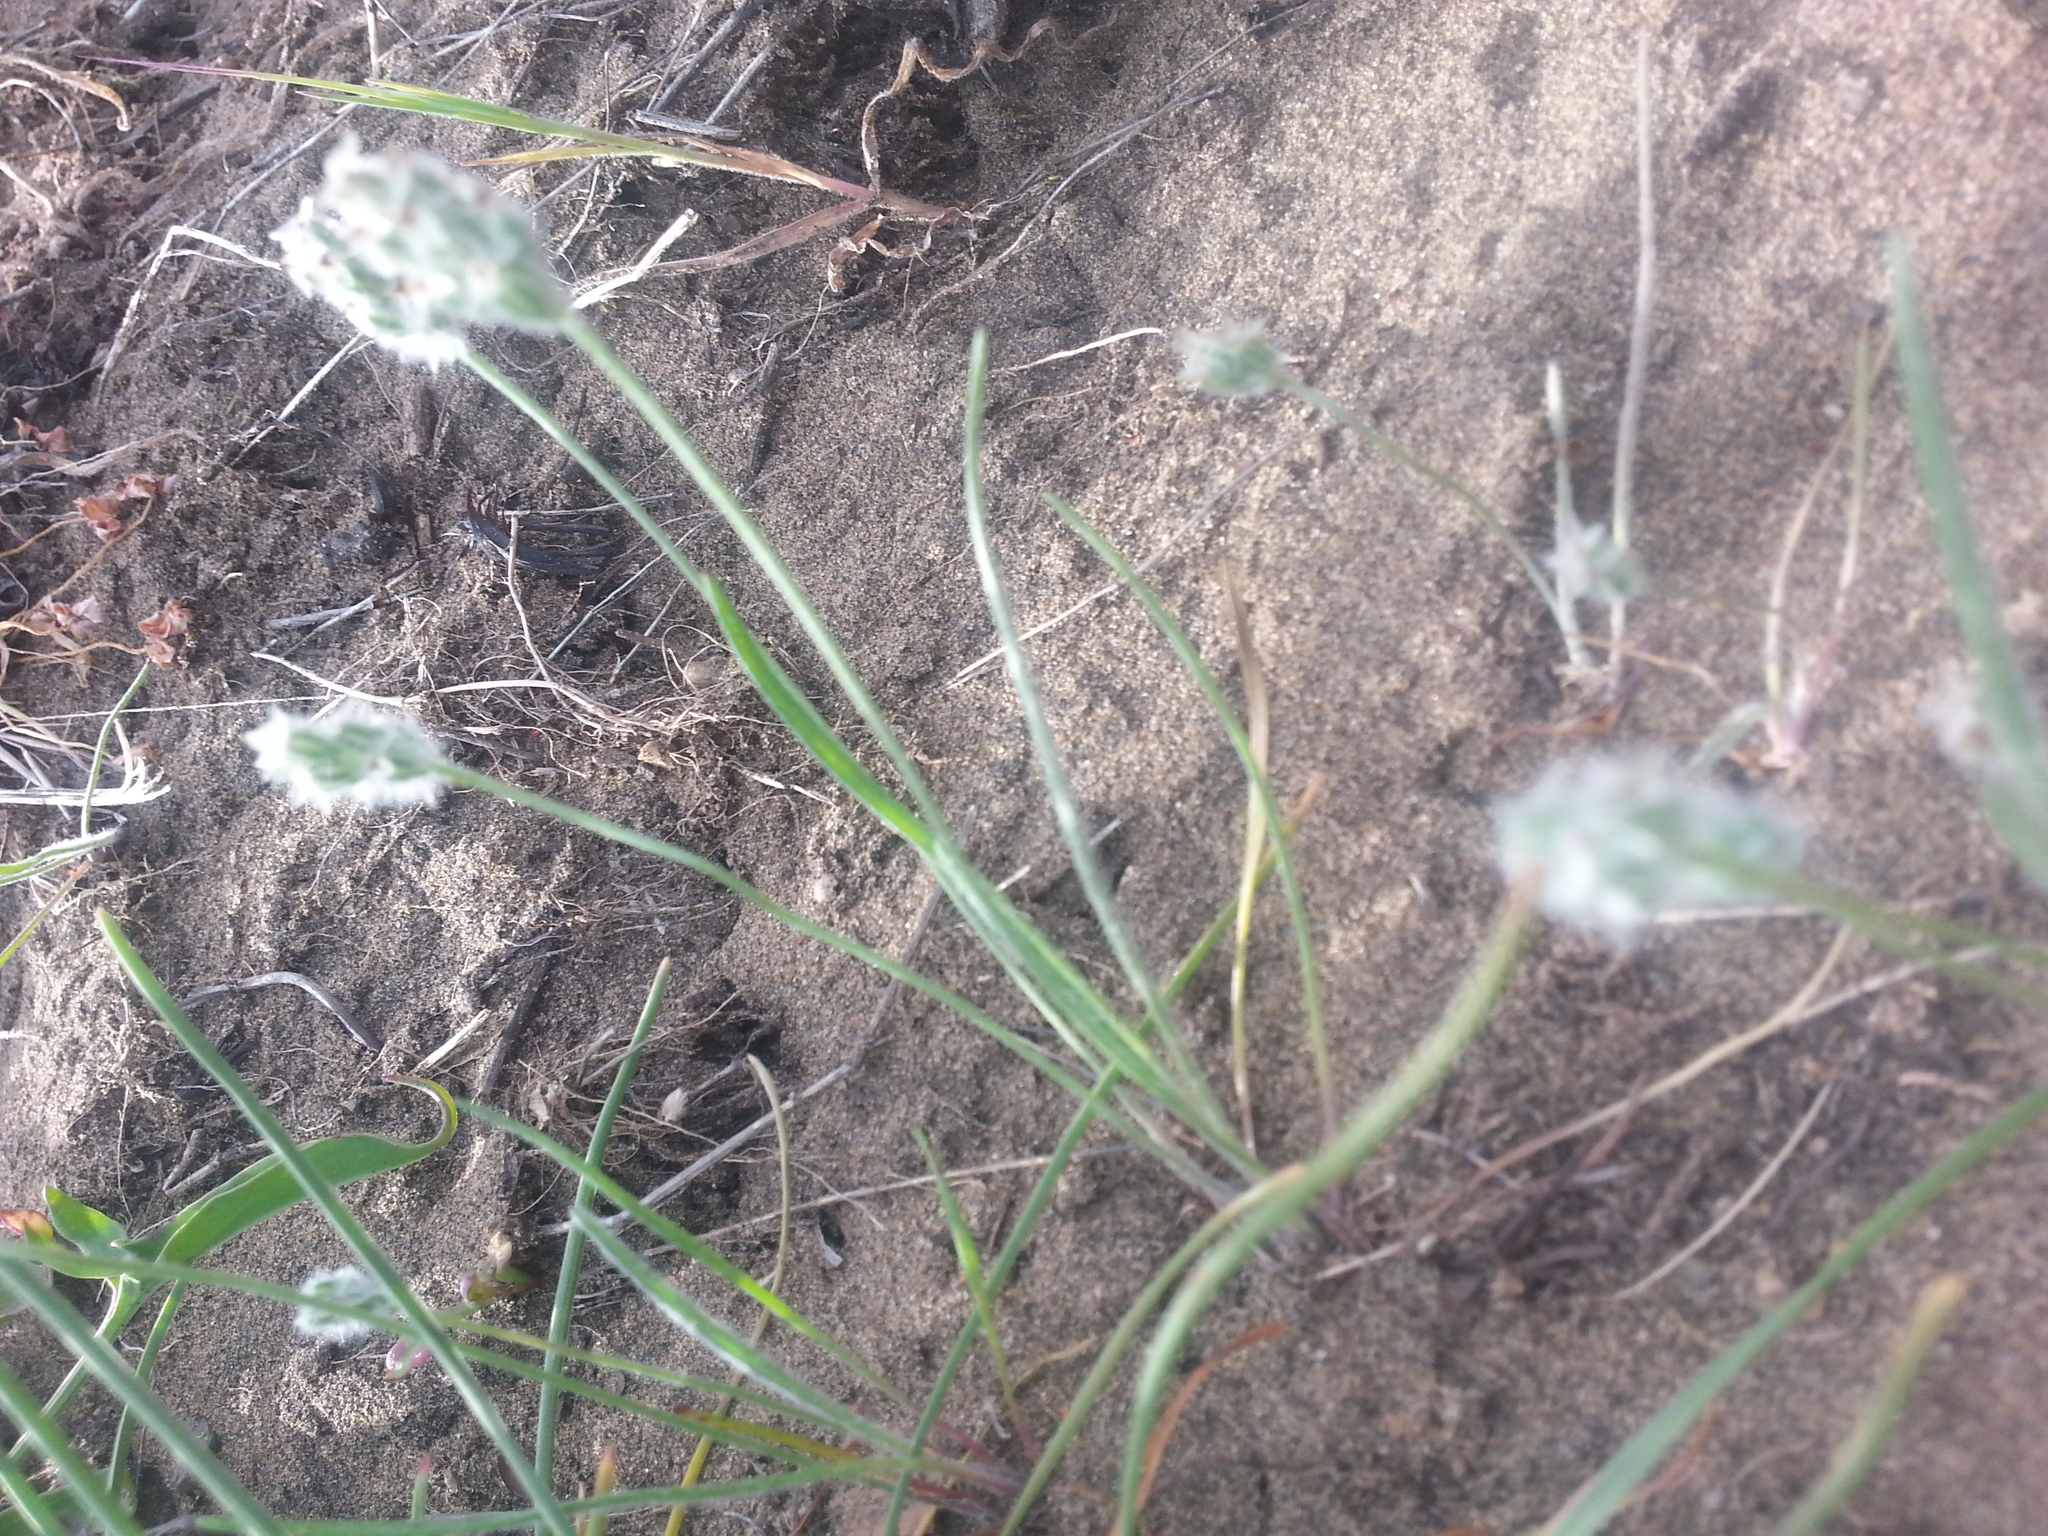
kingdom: Plantae
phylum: Tracheophyta
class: Magnoliopsida
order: Lamiales
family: Plantaginaceae
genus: Plantago
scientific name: Plantago erecta
